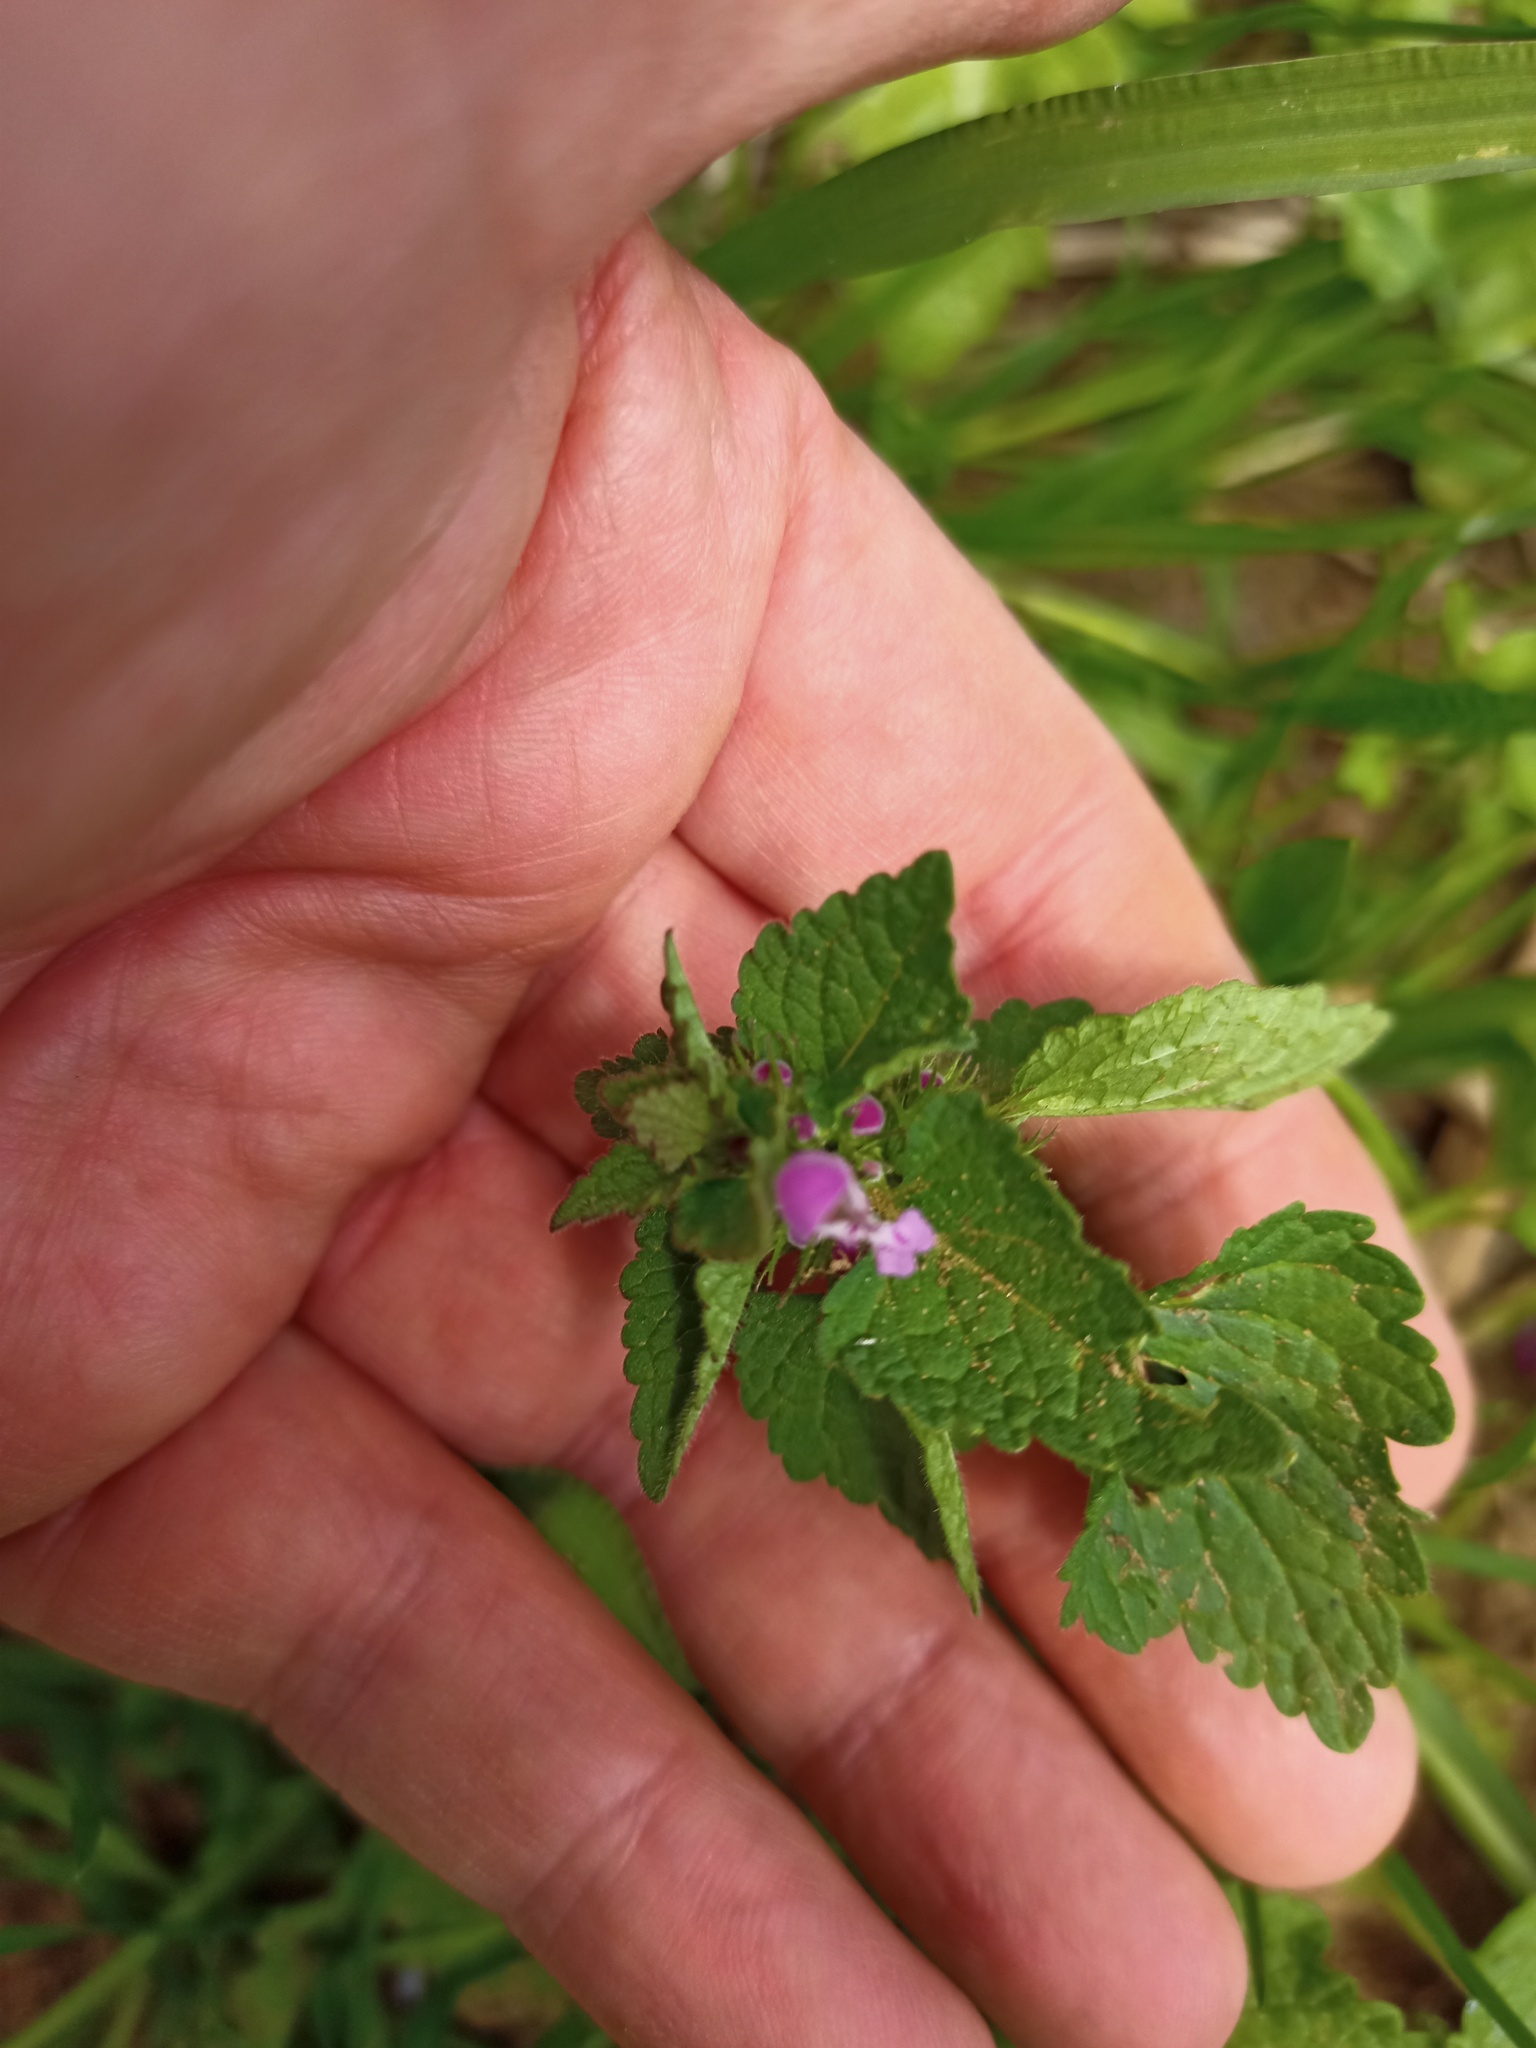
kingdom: Plantae
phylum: Tracheophyta
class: Magnoliopsida
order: Lamiales
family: Lamiaceae
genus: Lamium
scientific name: Lamium purpureum
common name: Red dead-nettle
